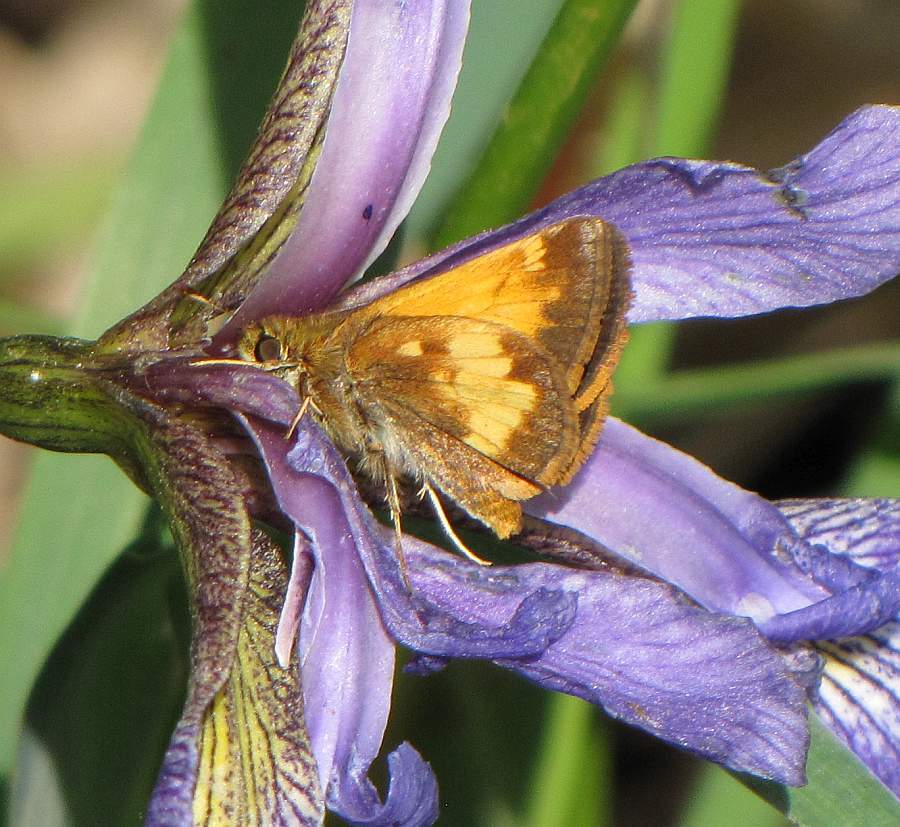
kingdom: Animalia
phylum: Arthropoda
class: Insecta
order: Lepidoptera
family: Hesperiidae
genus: Lon
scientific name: Lon hobomok
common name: Hobomok skipper
